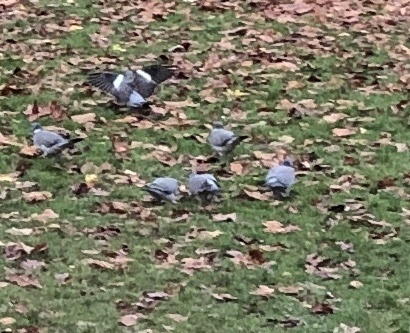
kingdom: Animalia
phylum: Chordata
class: Aves
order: Columbiformes
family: Columbidae
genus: Columba
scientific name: Columba palumbus
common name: Common wood pigeon
